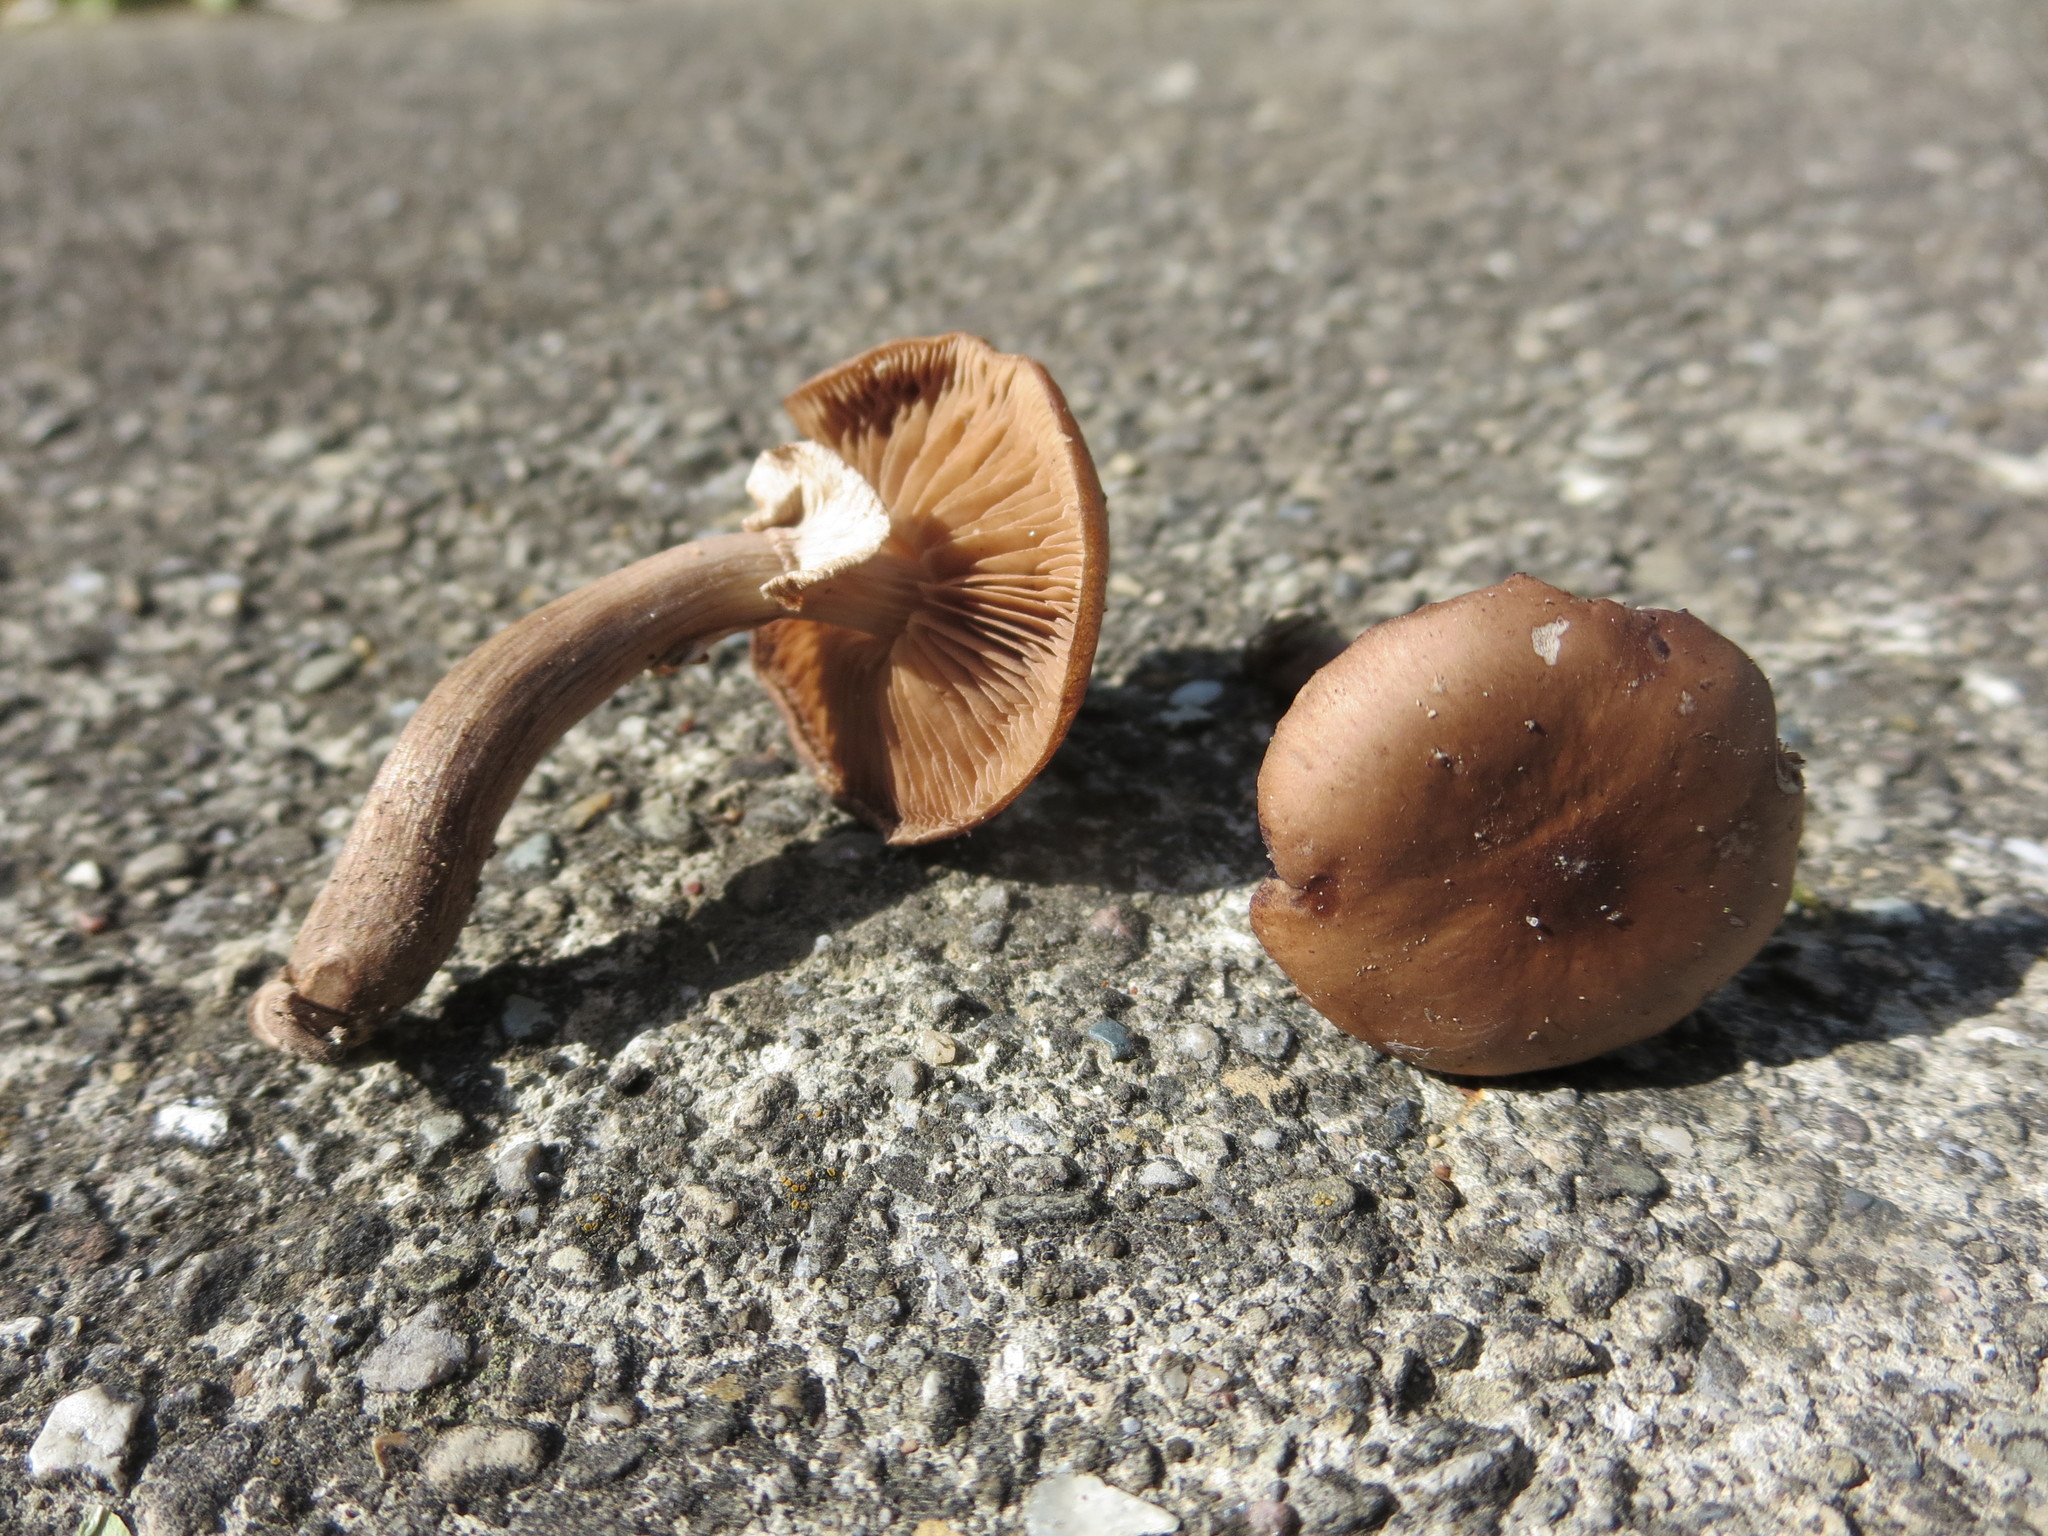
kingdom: Fungi
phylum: Basidiomycota
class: Agaricomycetes
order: Agaricales
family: Physalacriaceae
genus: Armillaria
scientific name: Armillaria mellea
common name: Honey fungus
